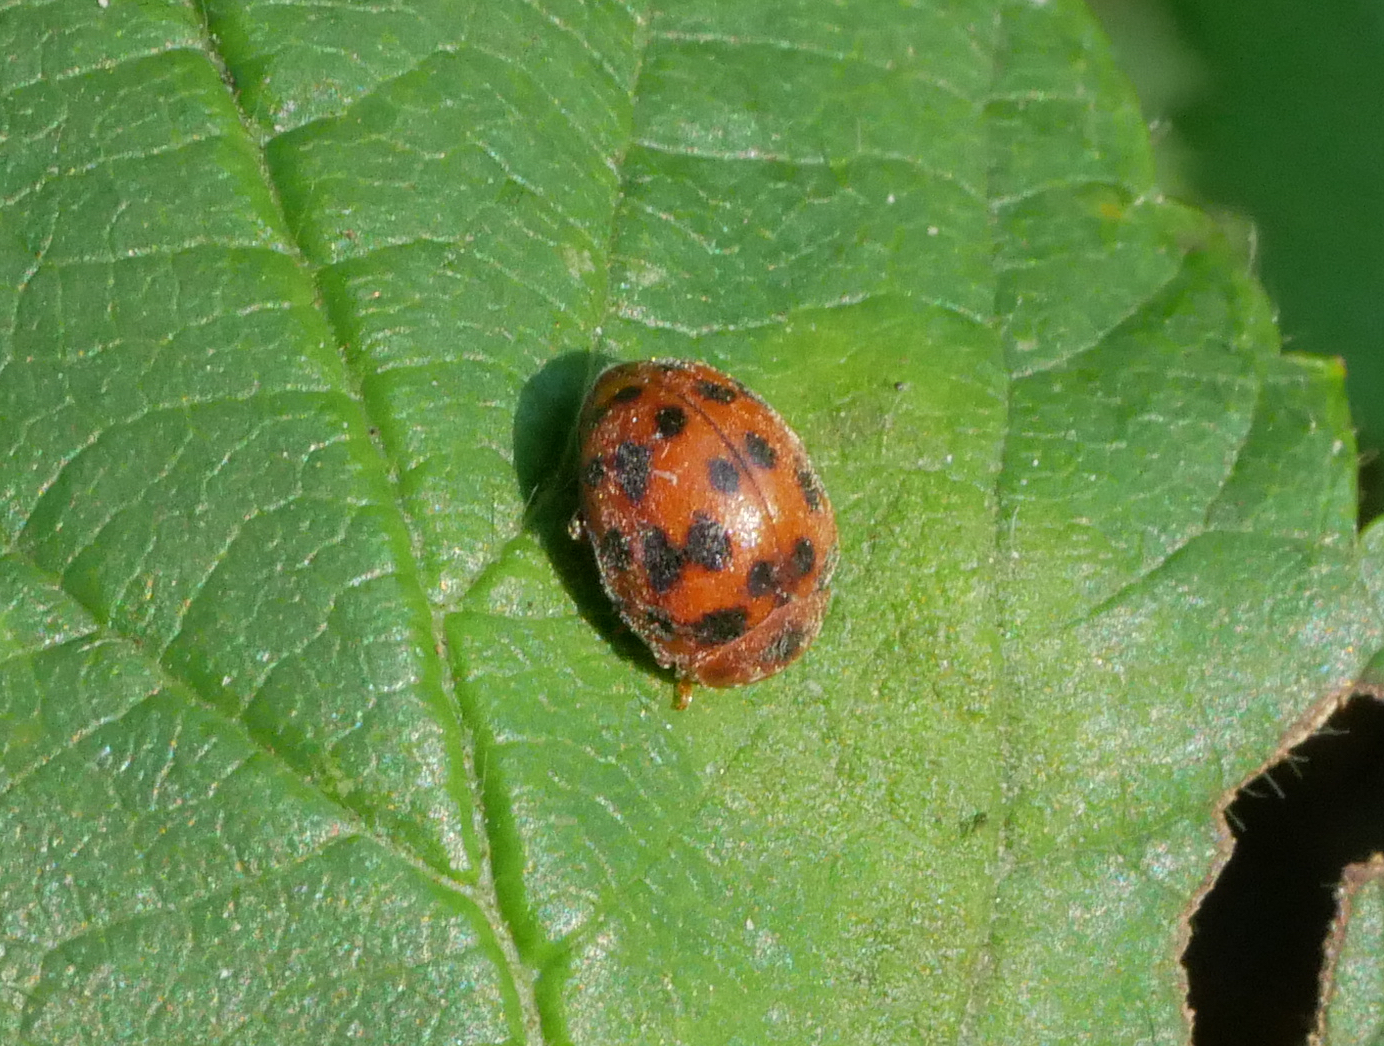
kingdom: Animalia
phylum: Arthropoda
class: Insecta
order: Coleoptera
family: Coccinellidae
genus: Subcoccinella
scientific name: Subcoccinella vigintiquatuorpunctata
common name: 24-spot ladybird
